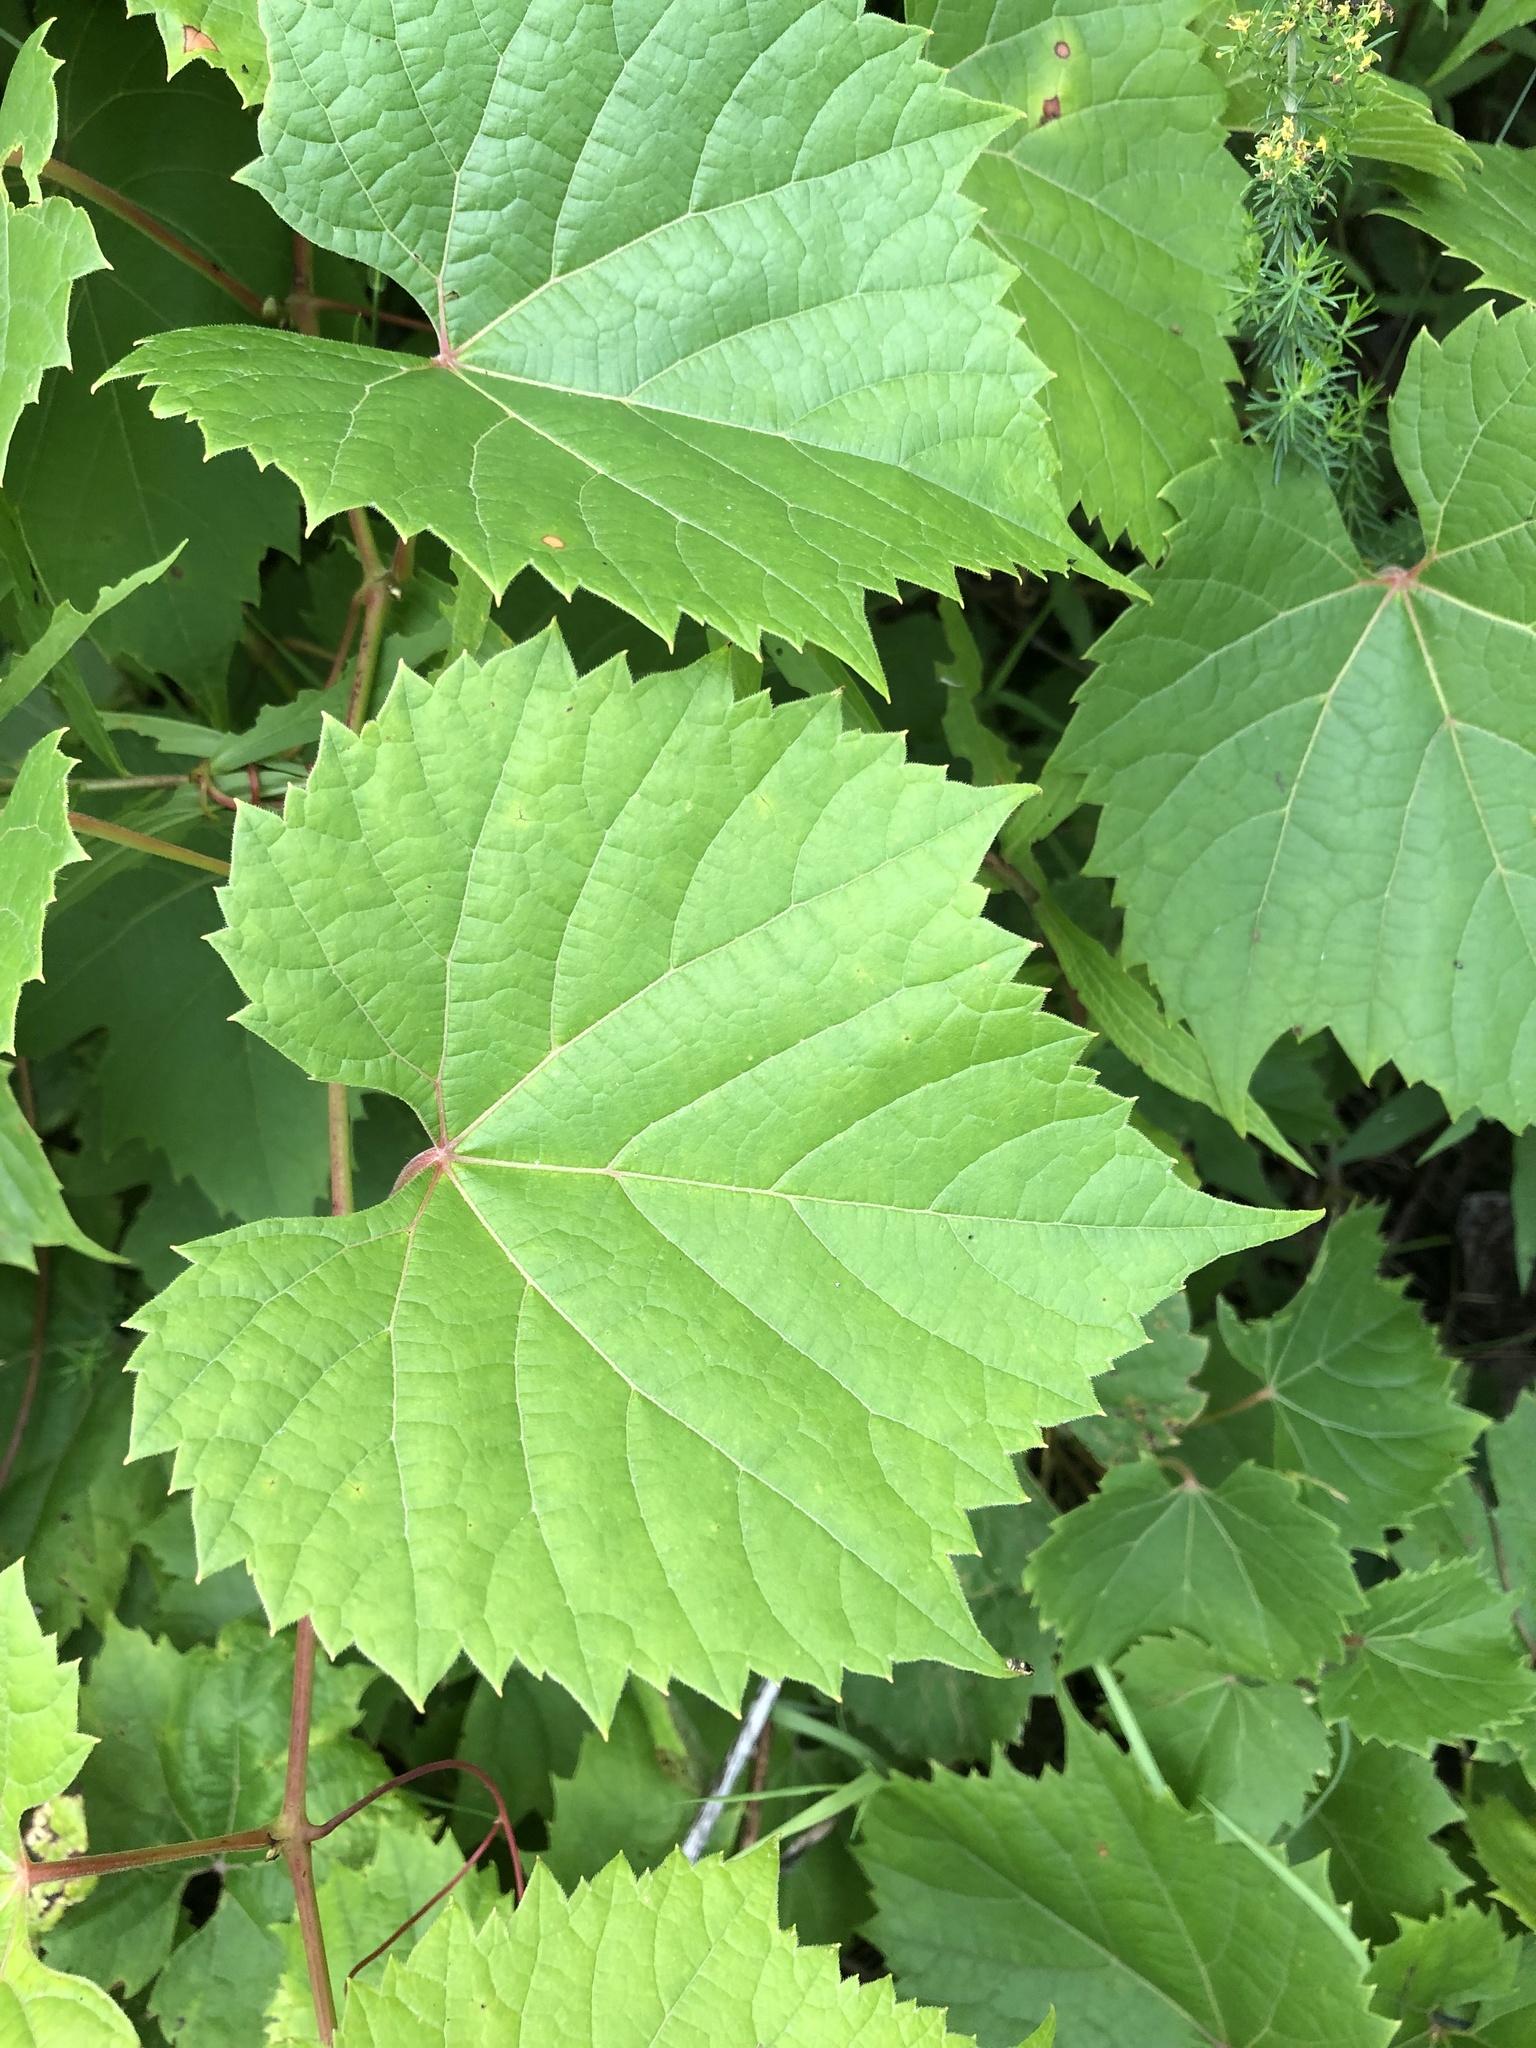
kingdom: Plantae
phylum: Tracheophyta
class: Magnoliopsida
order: Vitales
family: Vitaceae
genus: Vitis
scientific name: Vitis riparia
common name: Frost grape
